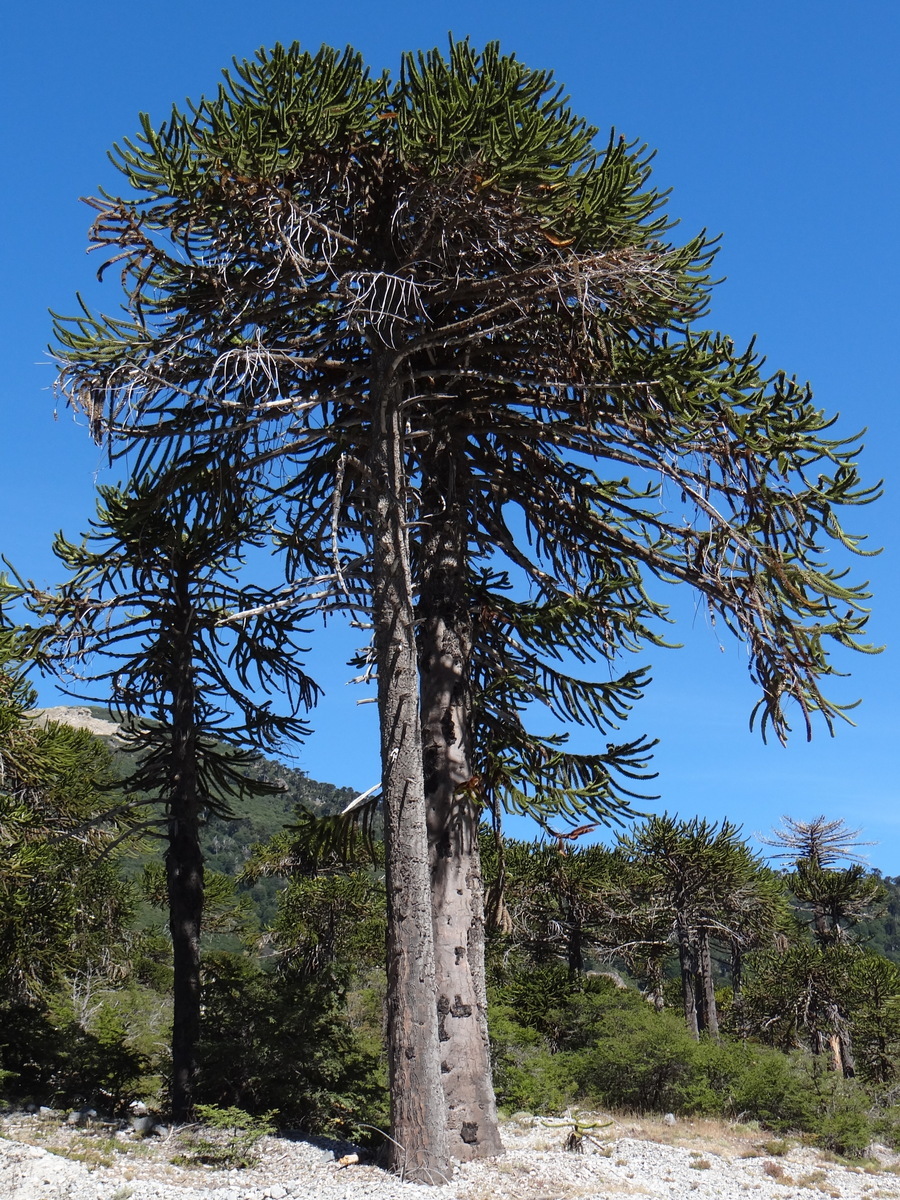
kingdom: Plantae
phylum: Tracheophyta
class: Pinopsida
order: Pinales
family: Araucariaceae
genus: Araucaria
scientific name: Araucaria araucana
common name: Monkey-puzzle
